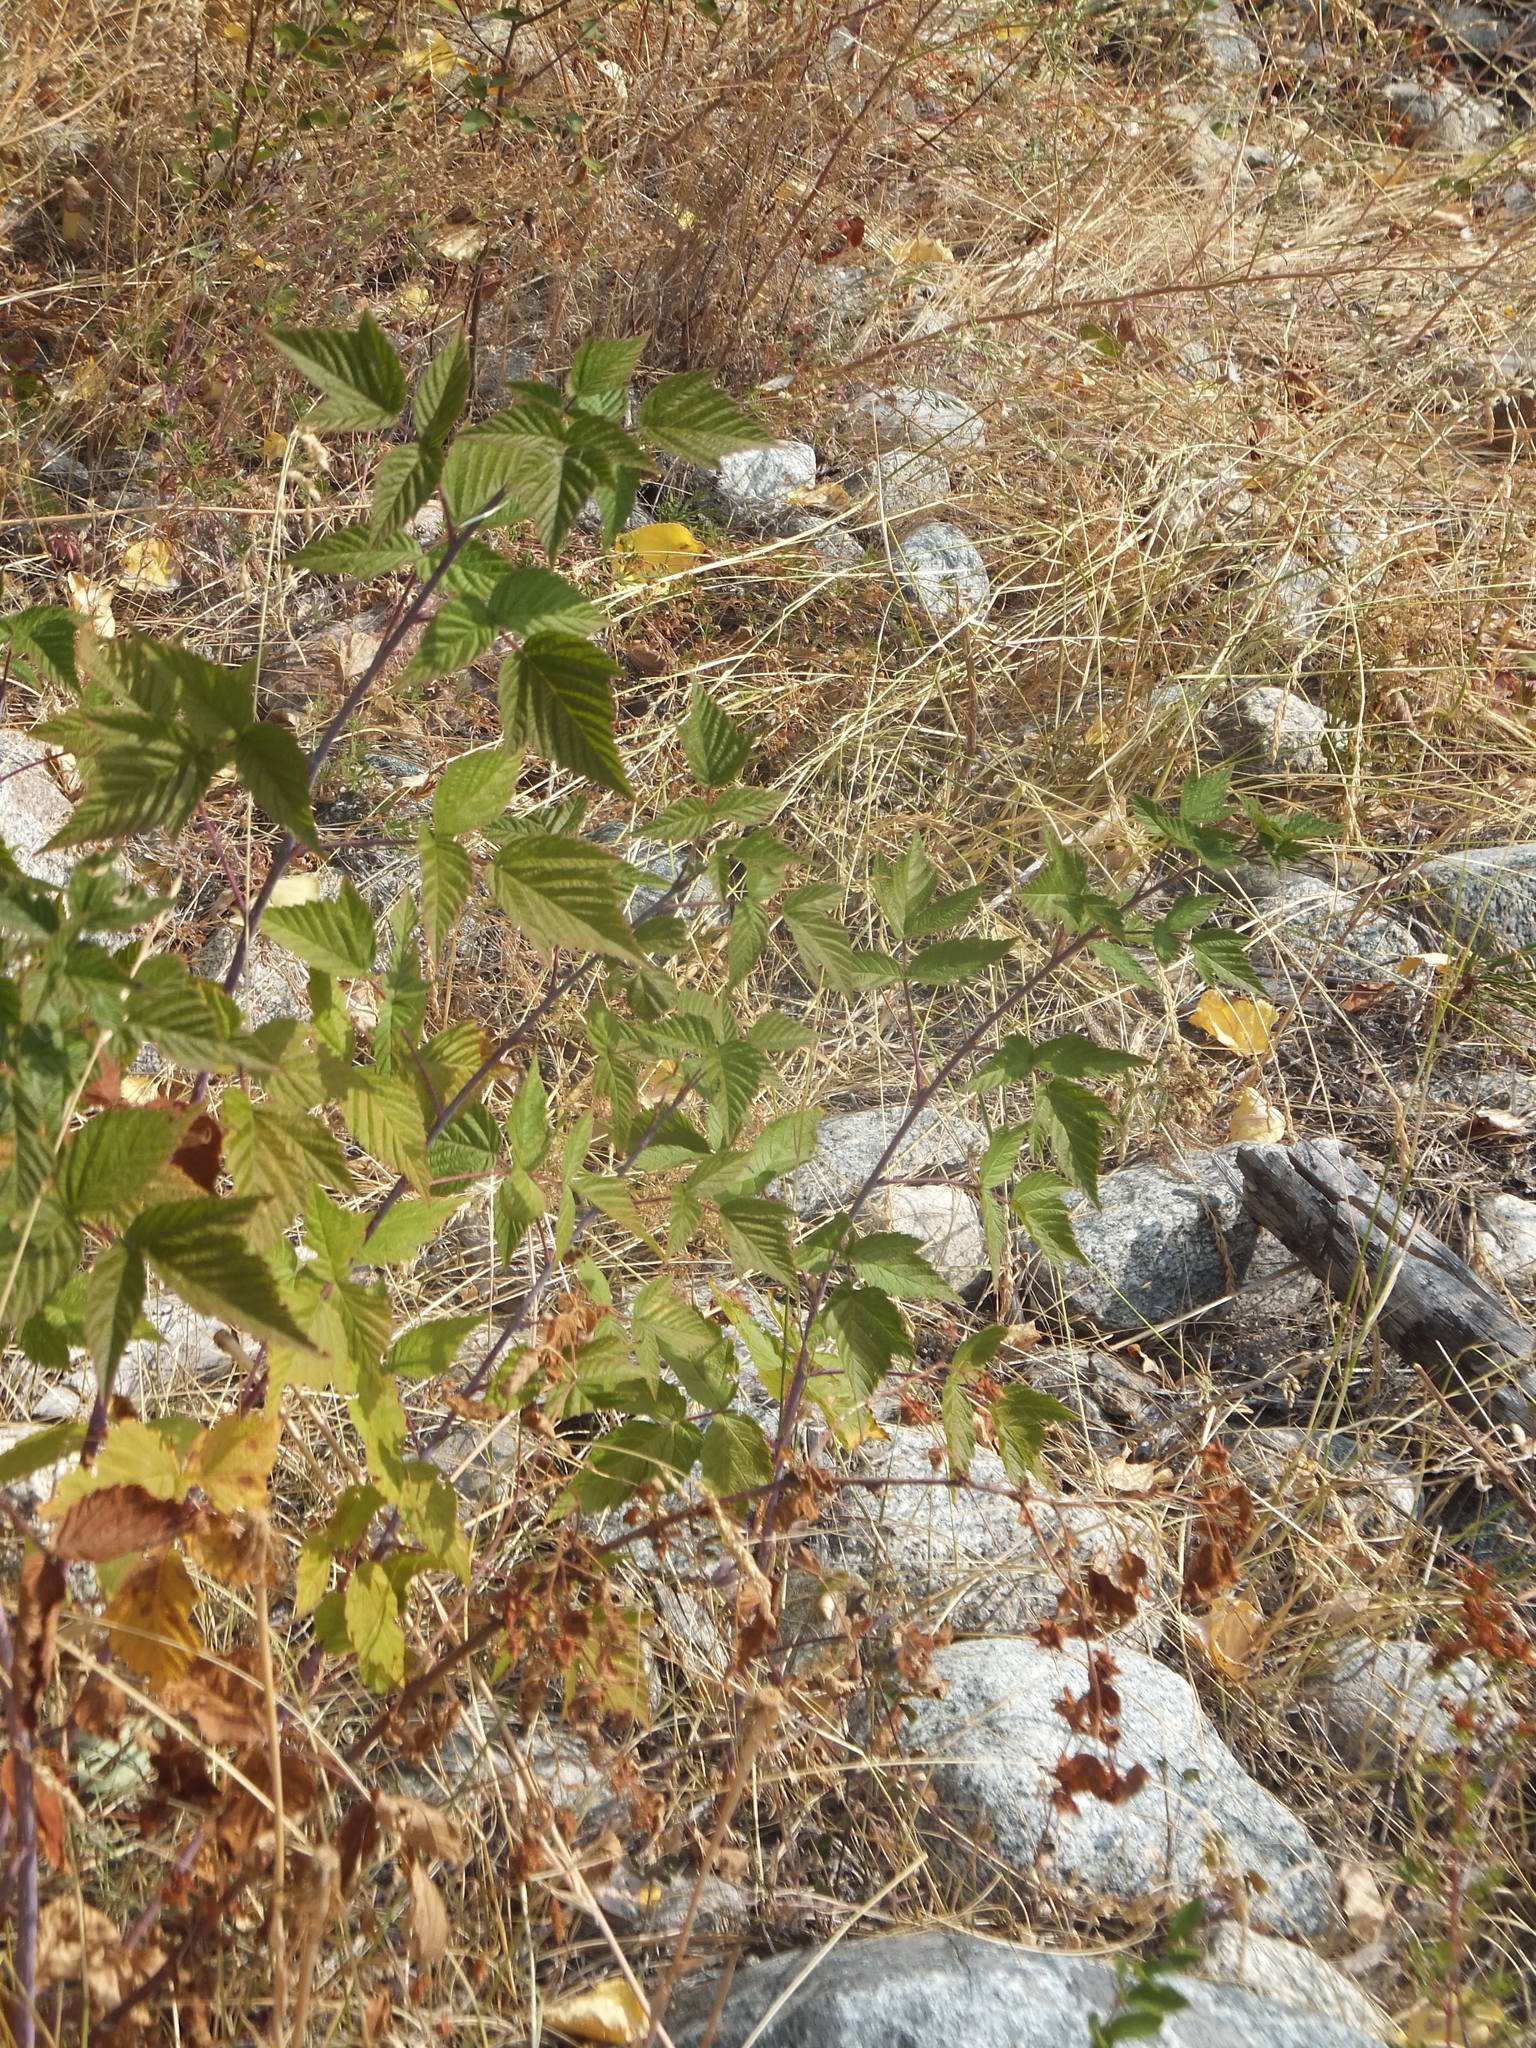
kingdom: Plantae
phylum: Tracheophyta
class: Magnoliopsida
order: Rosales
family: Rosaceae
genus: Rubus
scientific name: Rubus idaeus
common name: Raspberry
